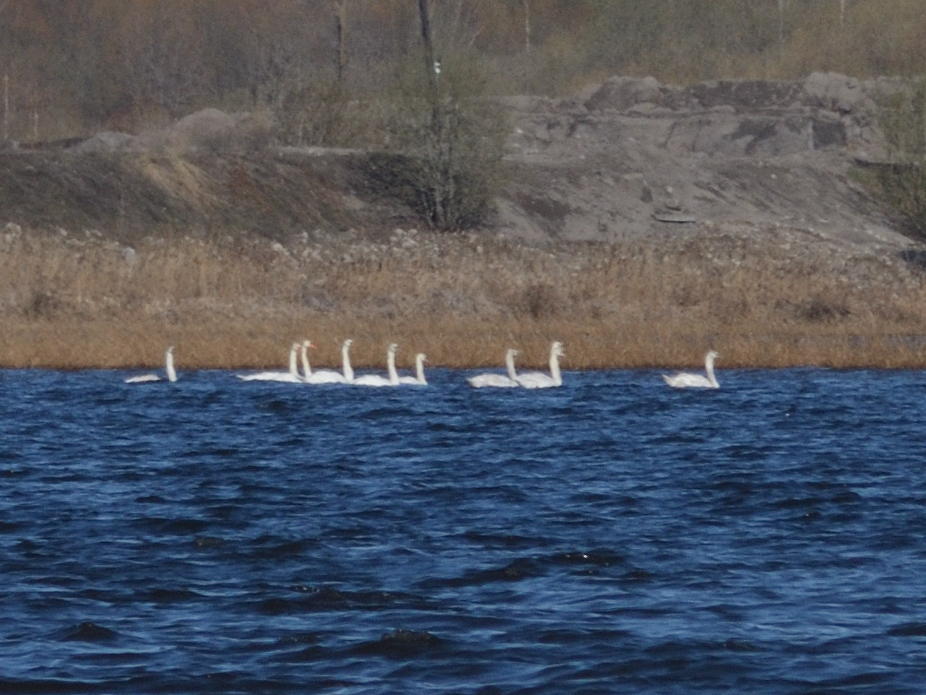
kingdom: Animalia
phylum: Chordata
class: Aves
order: Anseriformes
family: Anatidae
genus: Cygnus
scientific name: Cygnus olor
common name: Mute swan
